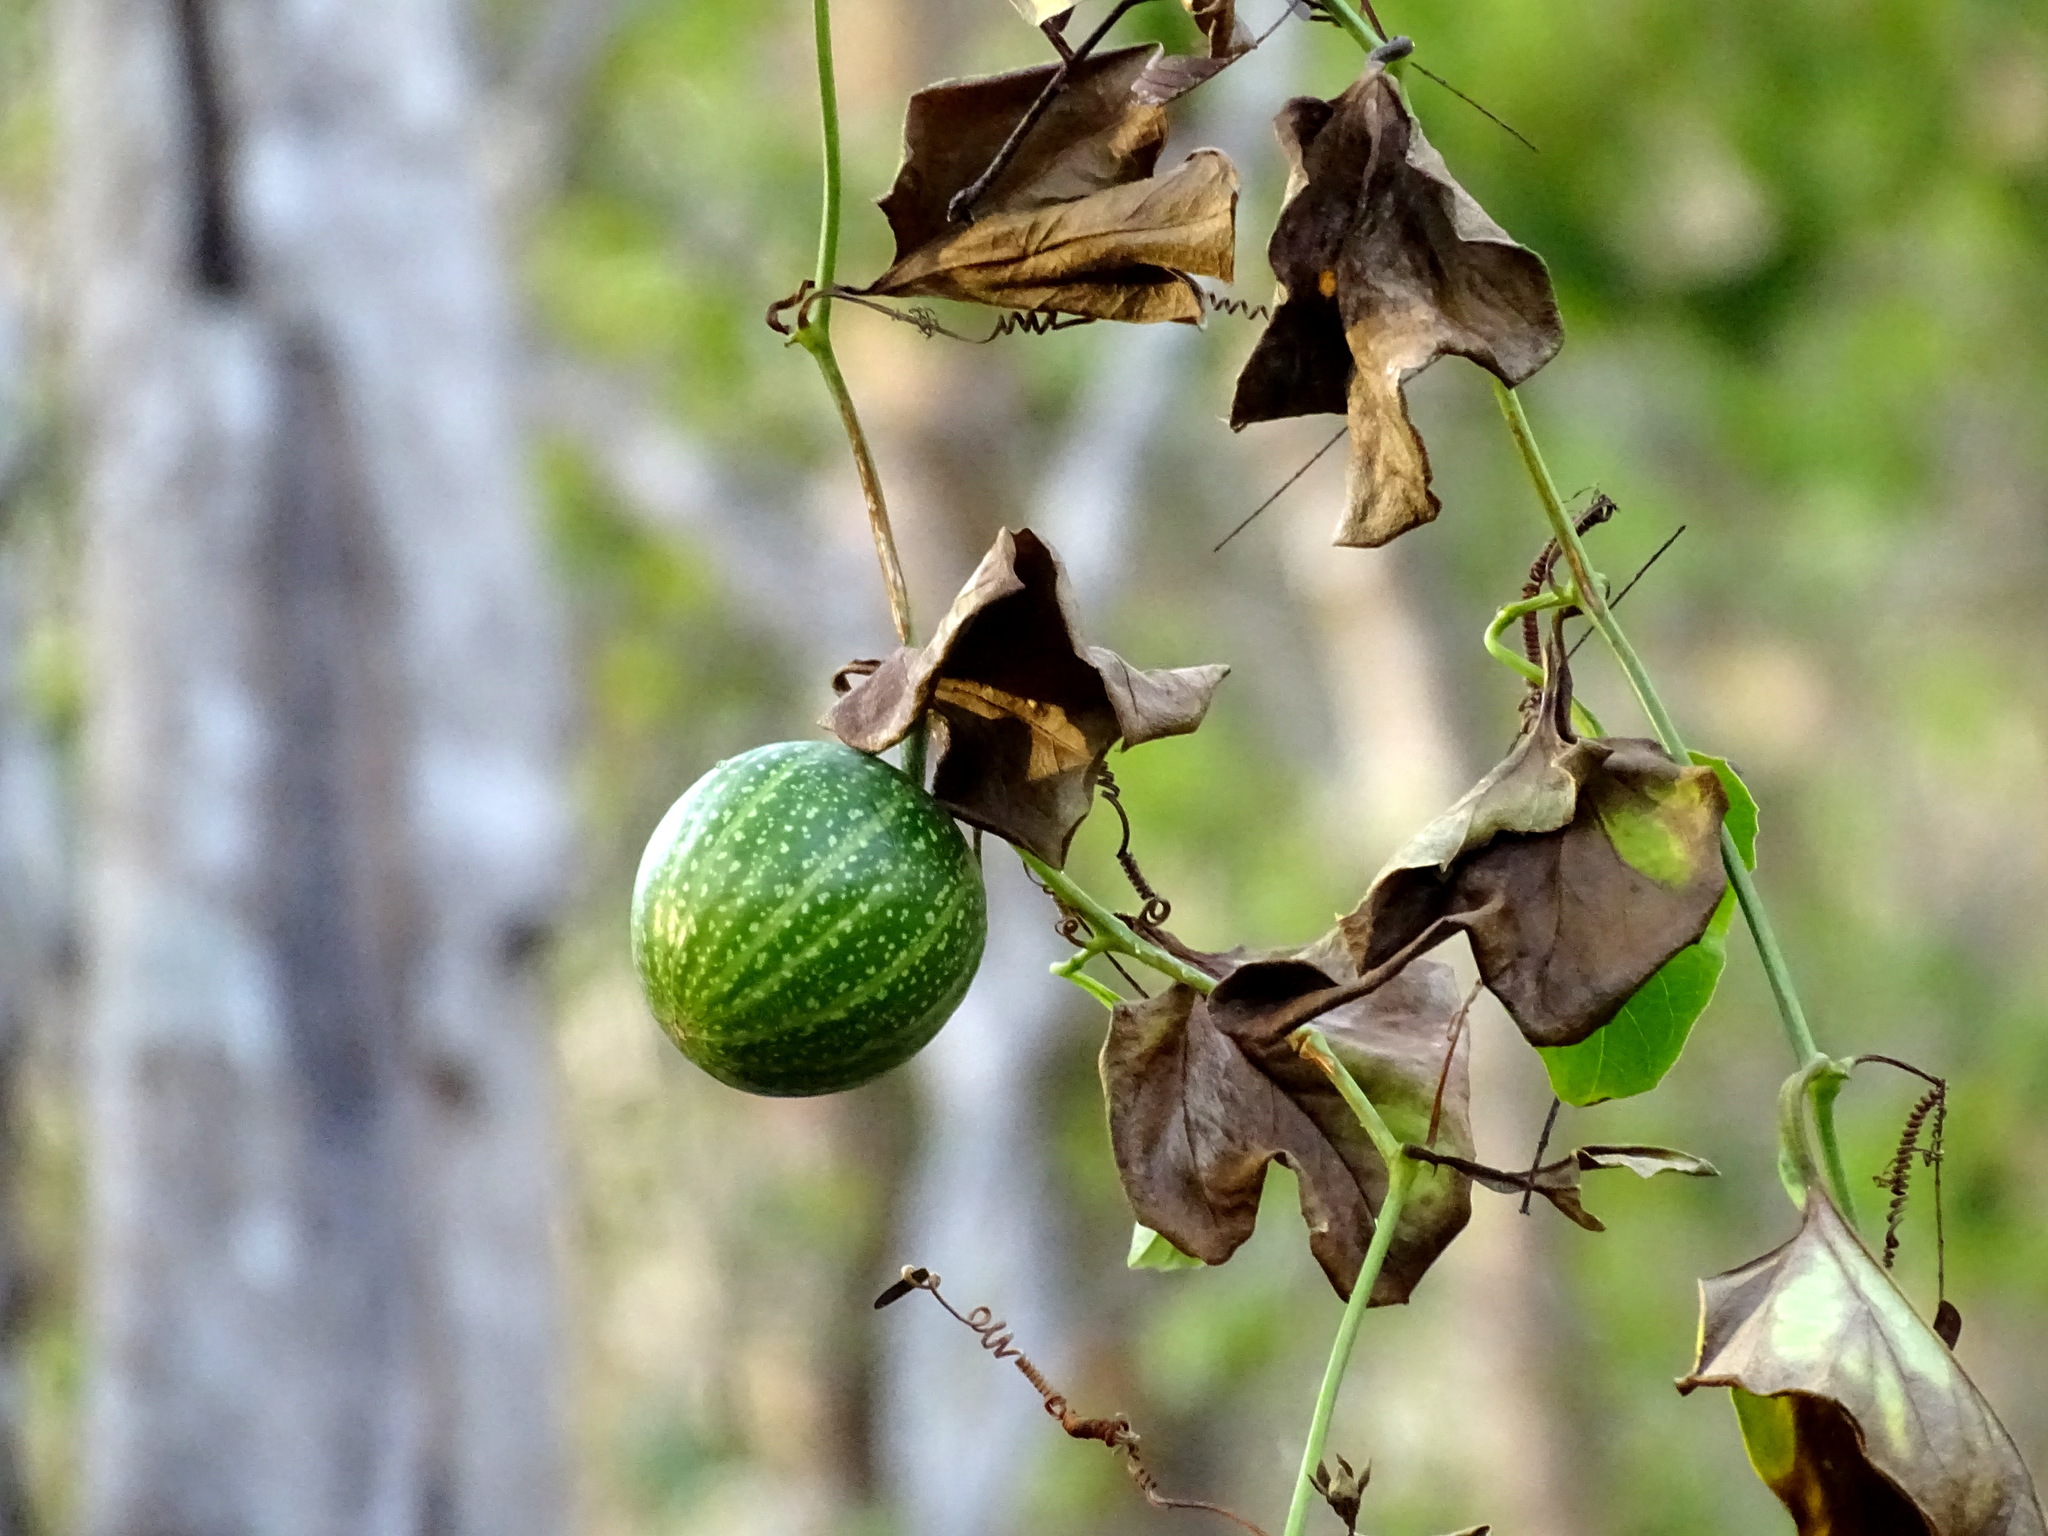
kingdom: Plantae
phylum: Tracheophyta
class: Magnoliopsida
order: Cucurbitales
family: Cucurbitaceae
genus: Cionosicys
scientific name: Cionosicys excisus
